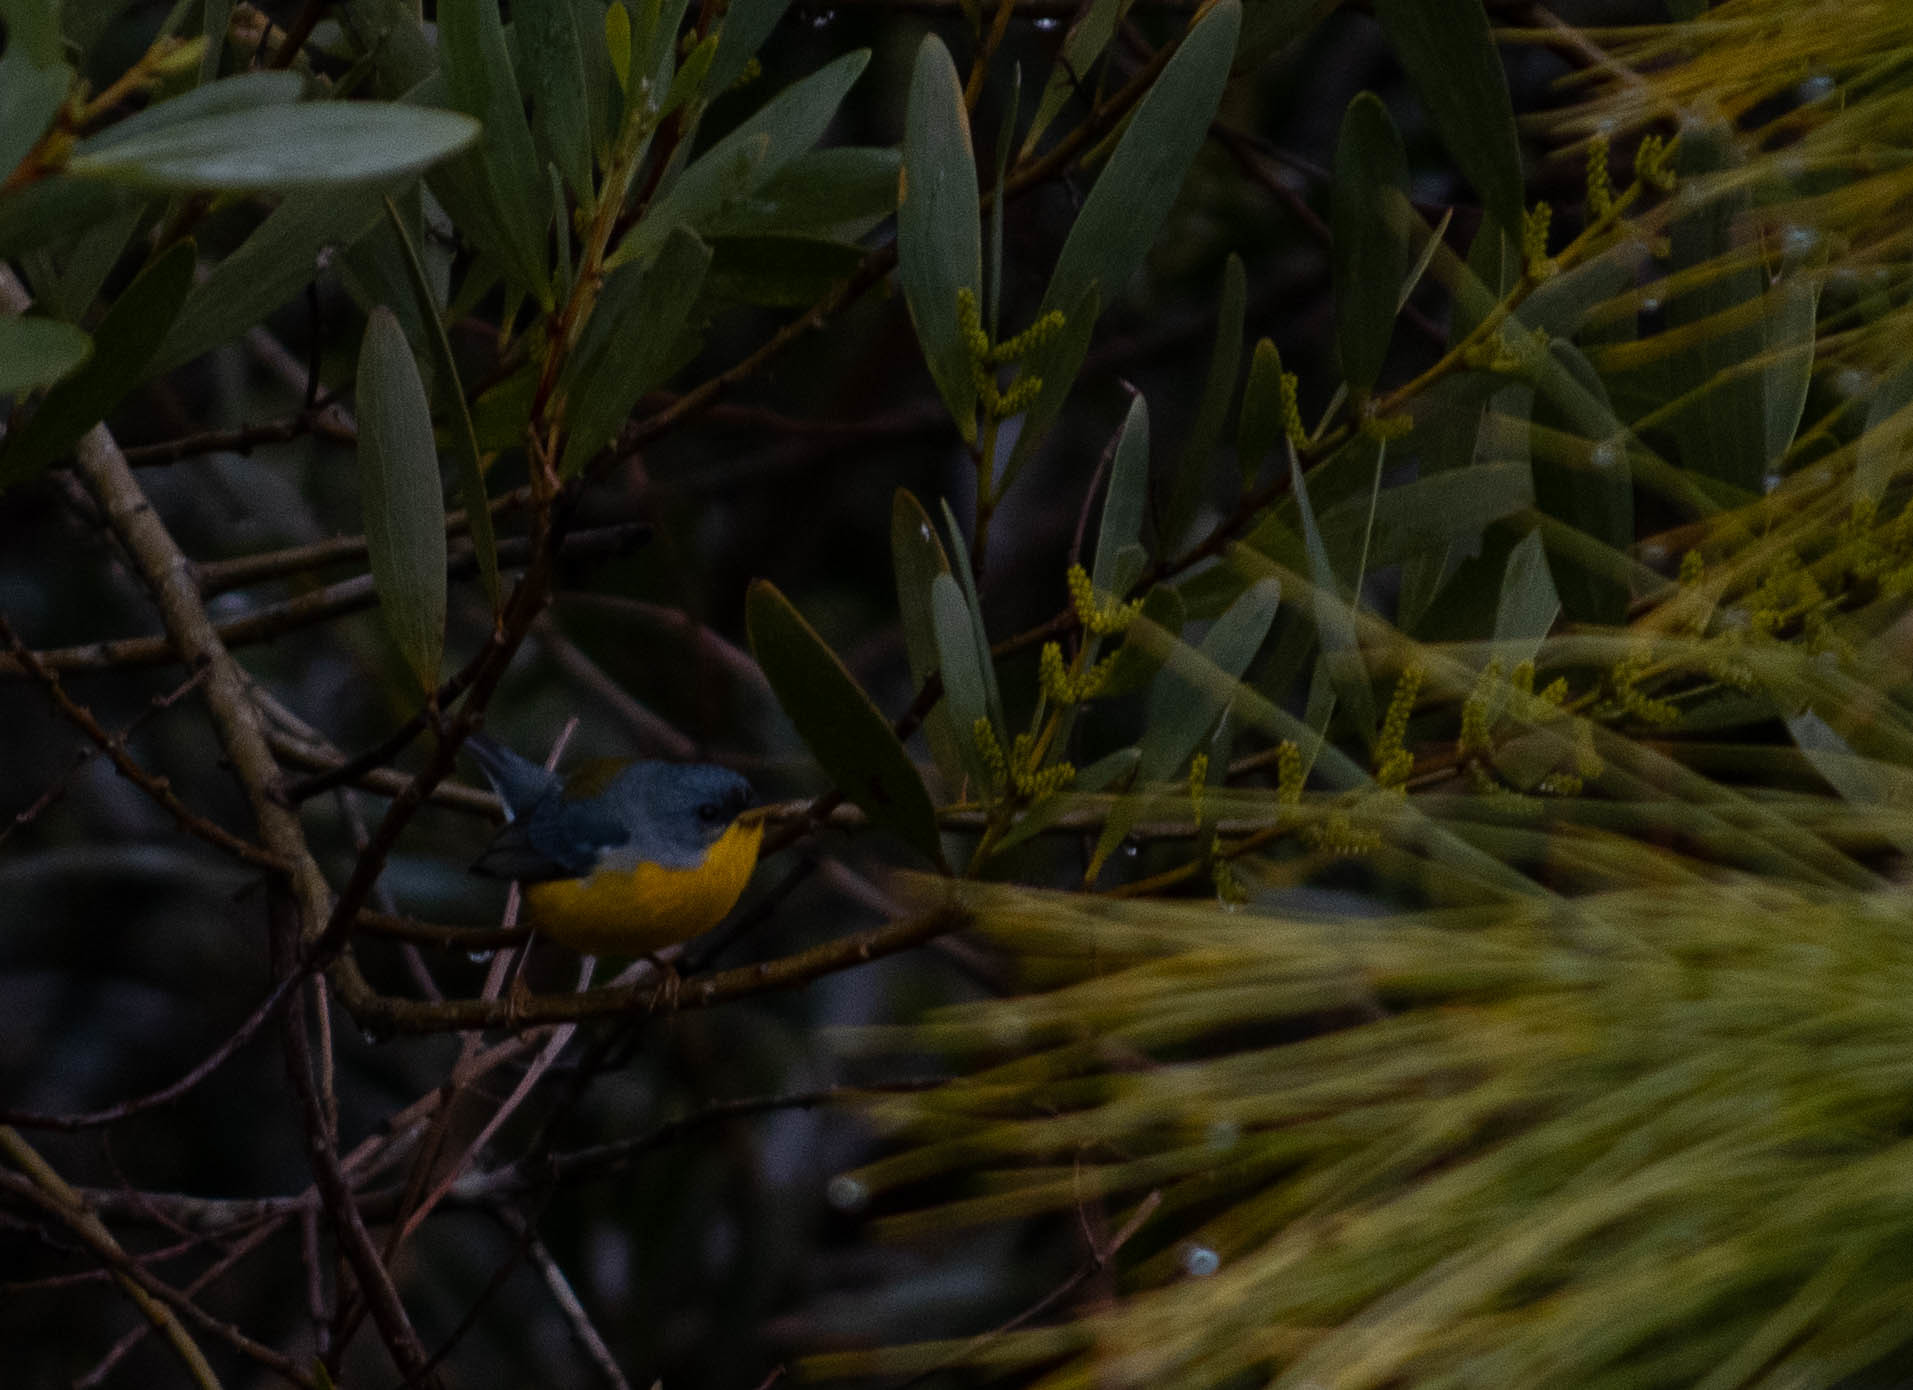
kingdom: Animalia
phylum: Chordata
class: Aves
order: Passeriformes
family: Parulidae
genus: Setophaga
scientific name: Setophaga pitiayumi
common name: Tropical parula
